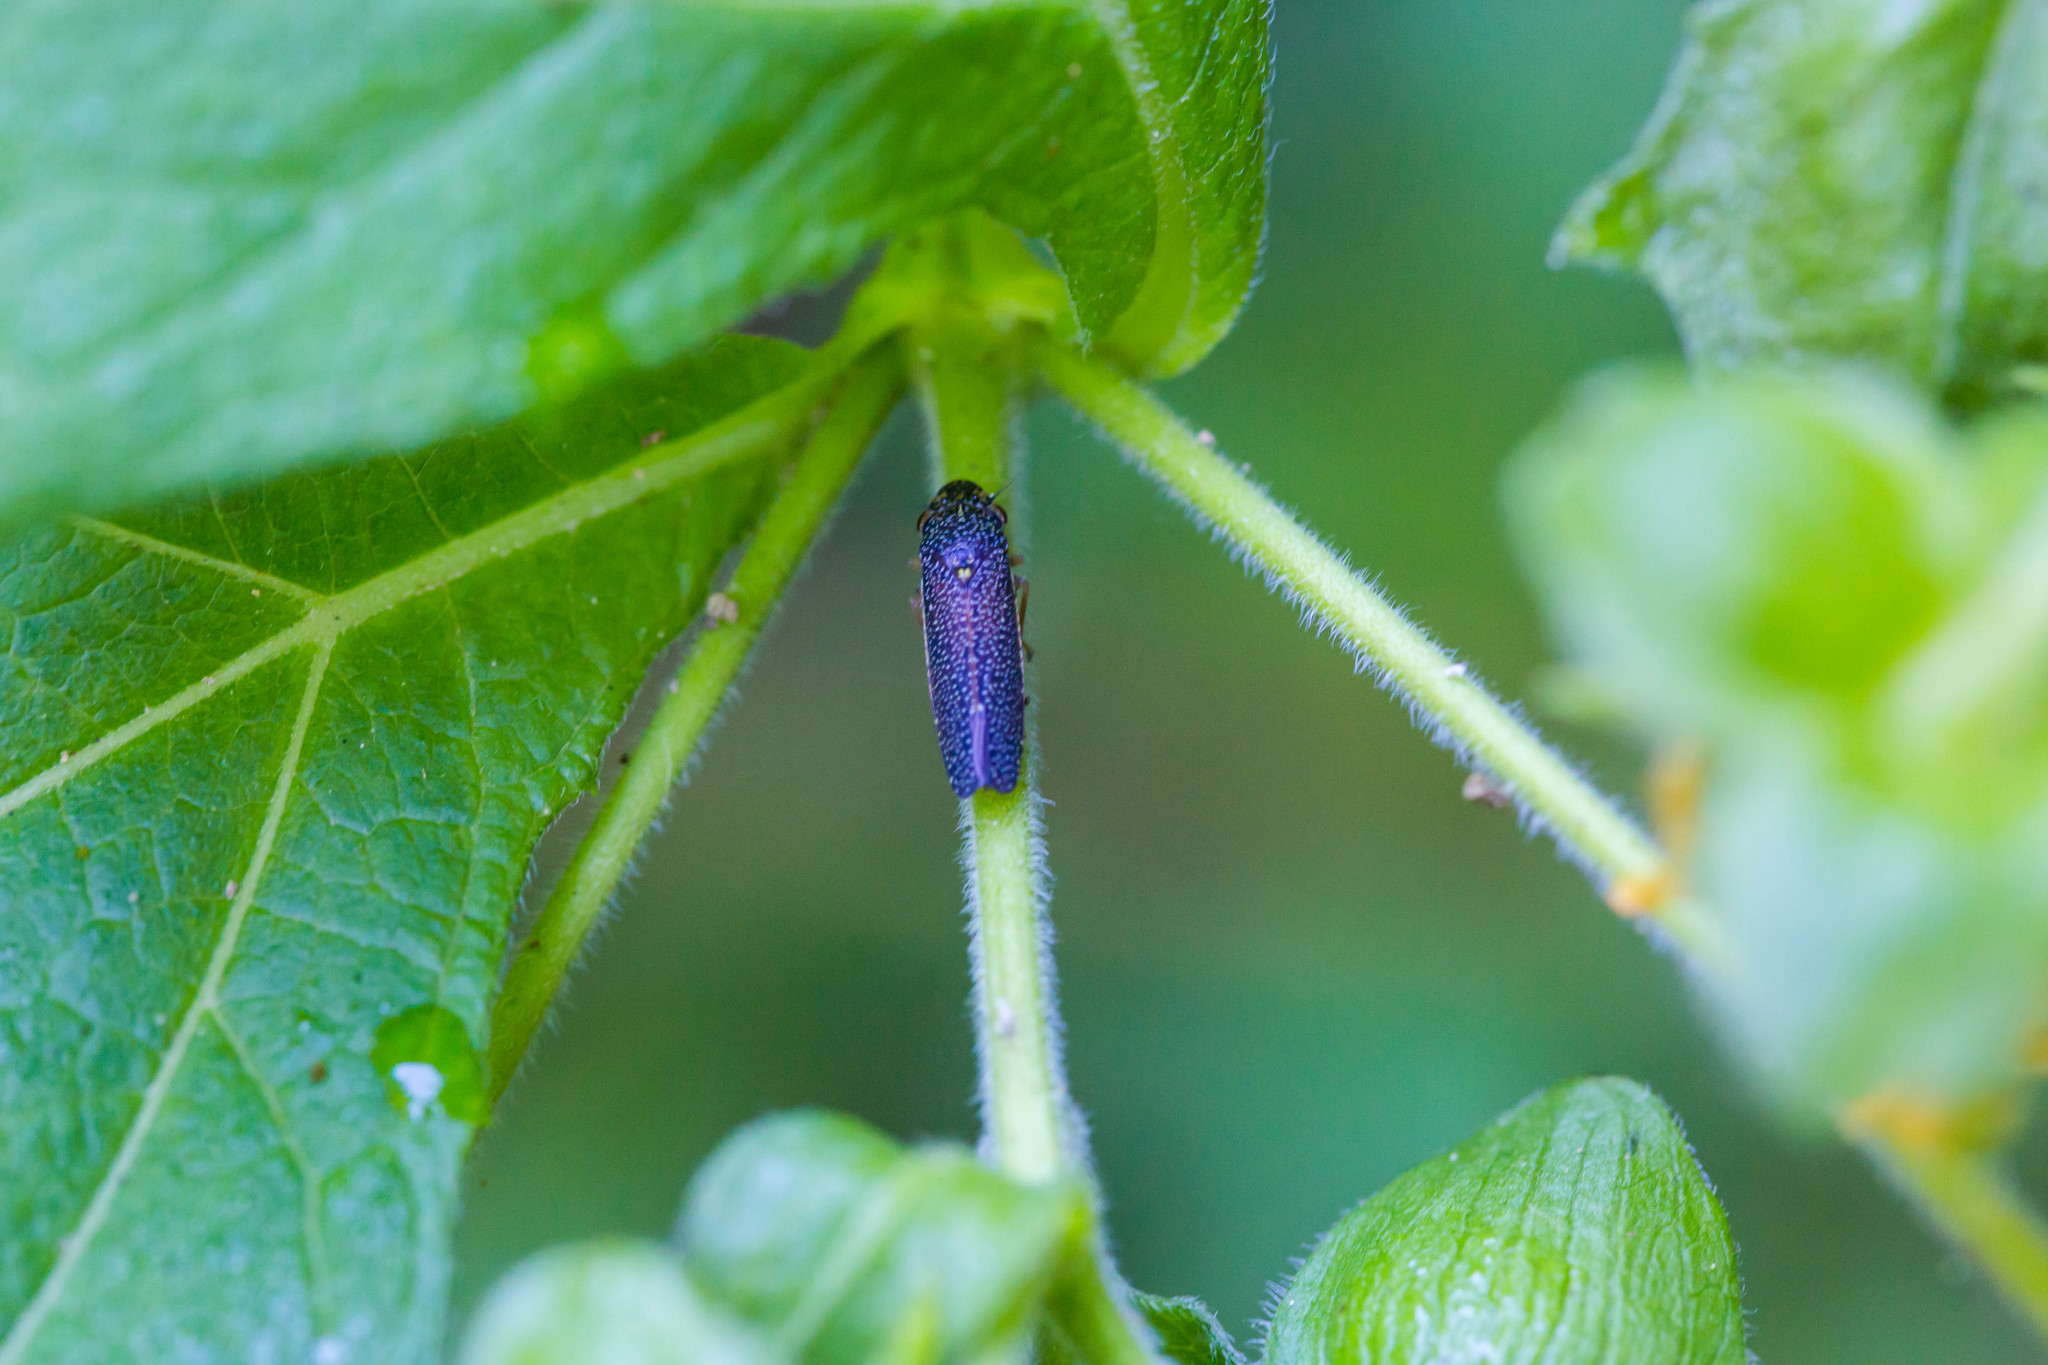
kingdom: Animalia
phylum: Arthropoda
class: Insecta
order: Hemiptera
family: Cicadellidae
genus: Paraulacizes
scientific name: Paraulacizes irrorata
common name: Speckled sharpshooter
